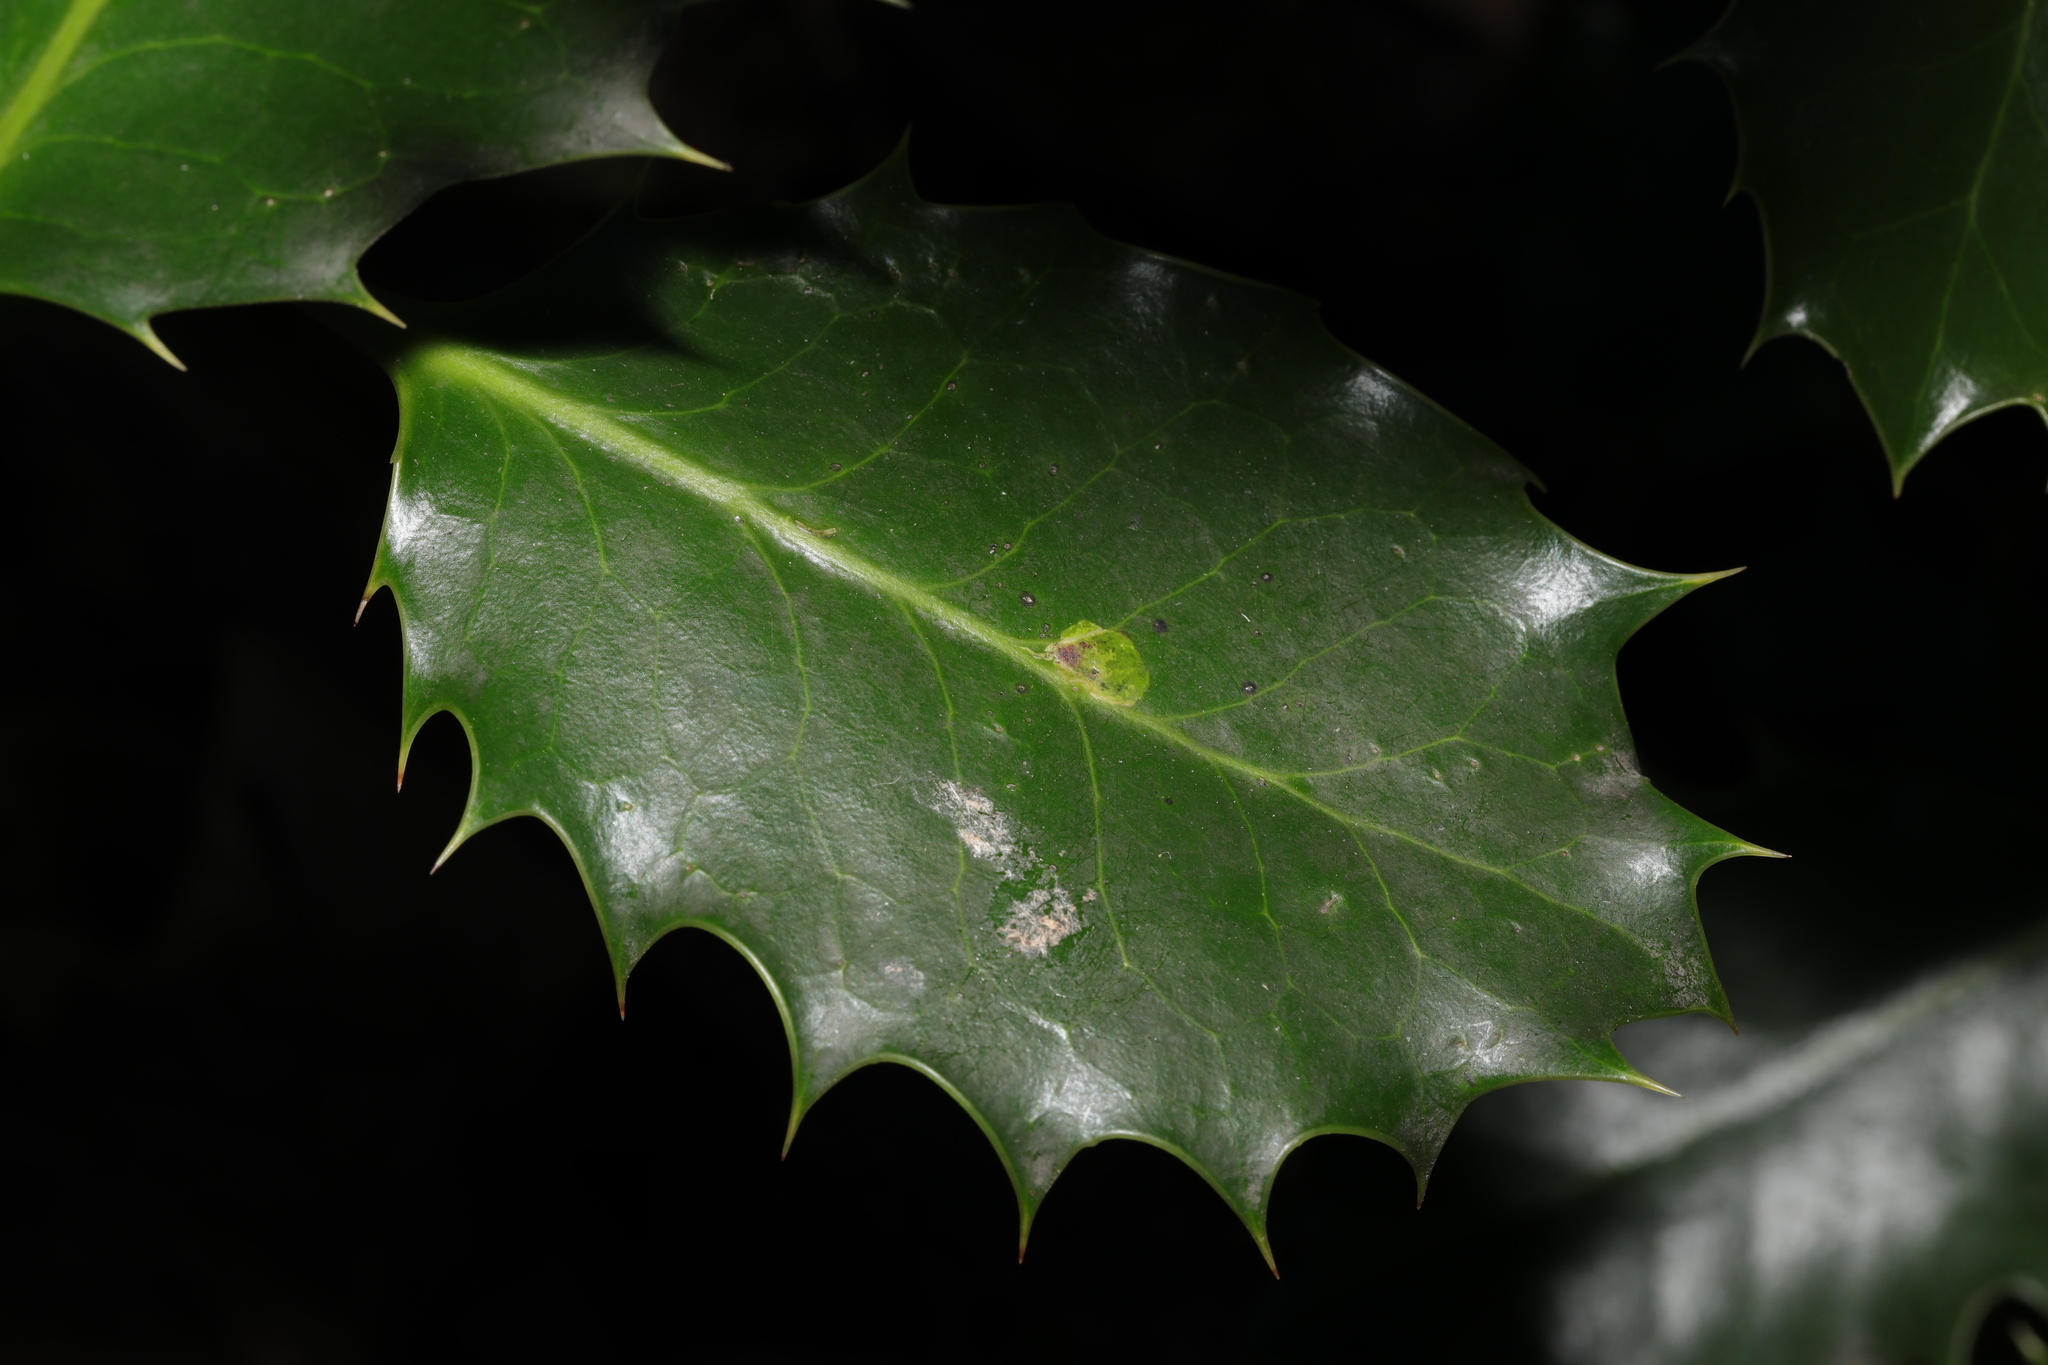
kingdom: Animalia
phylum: Arthropoda
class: Insecta
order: Diptera
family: Agromyzidae
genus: Phytomyza
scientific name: Phytomyza ilicis
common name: Holly leafminer
